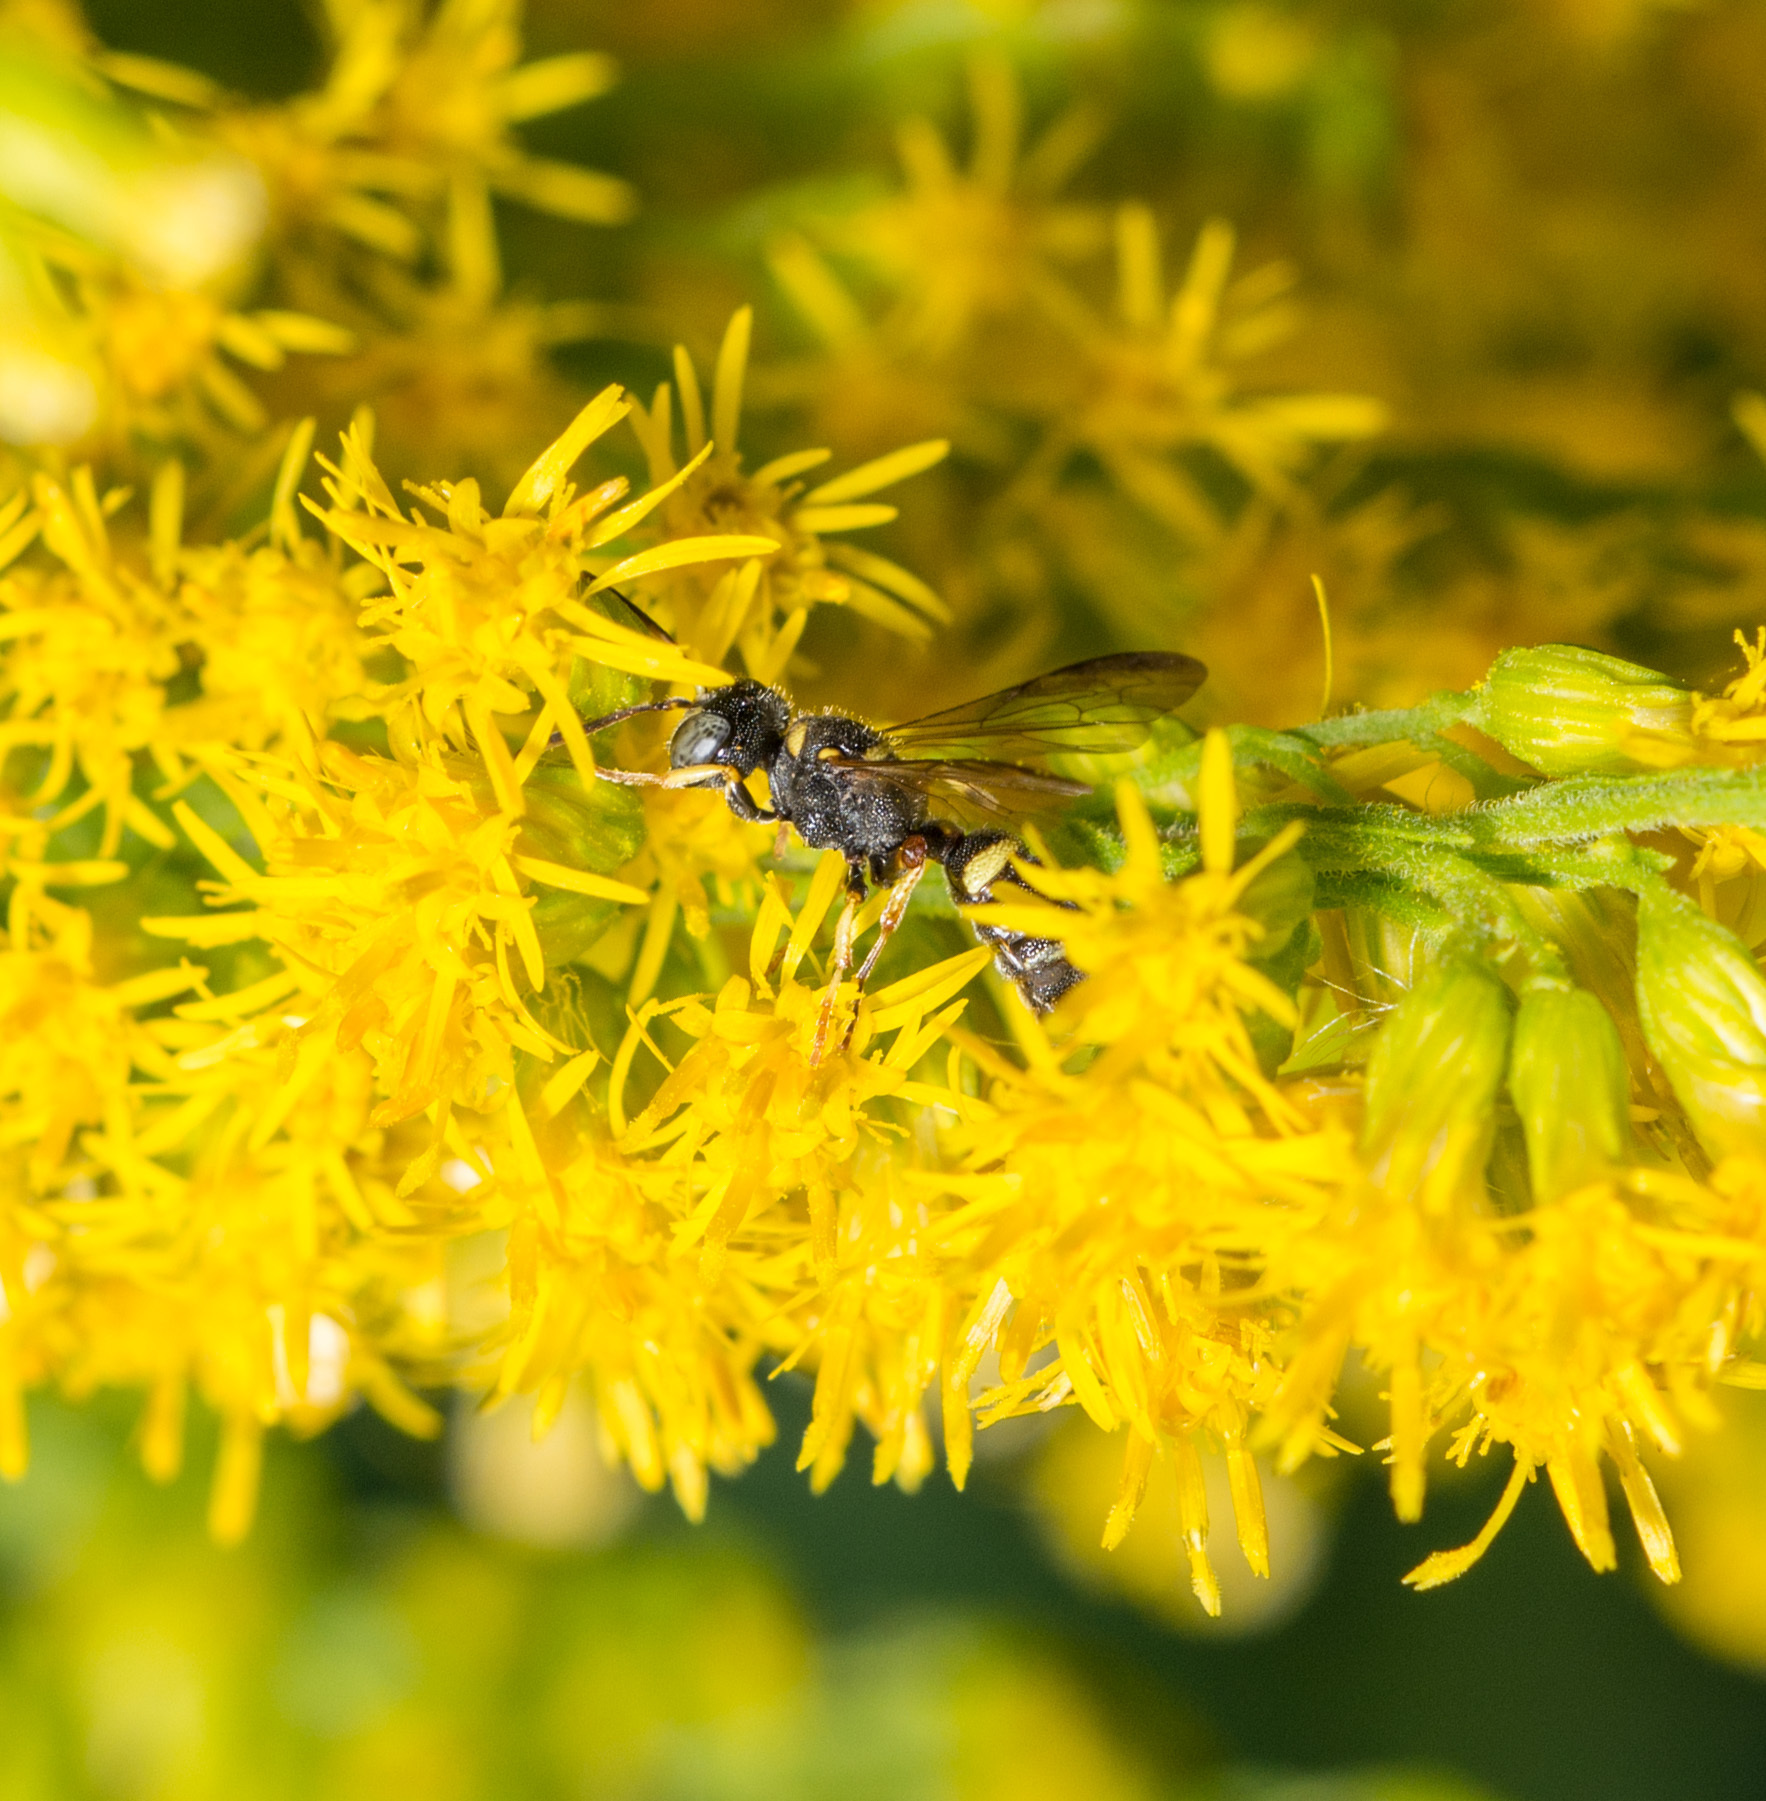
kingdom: Animalia
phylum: Arthropoda
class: Insecta
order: Hymenoptera
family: Crabronidae
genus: Cerceris
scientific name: Cerceris kennicottii
